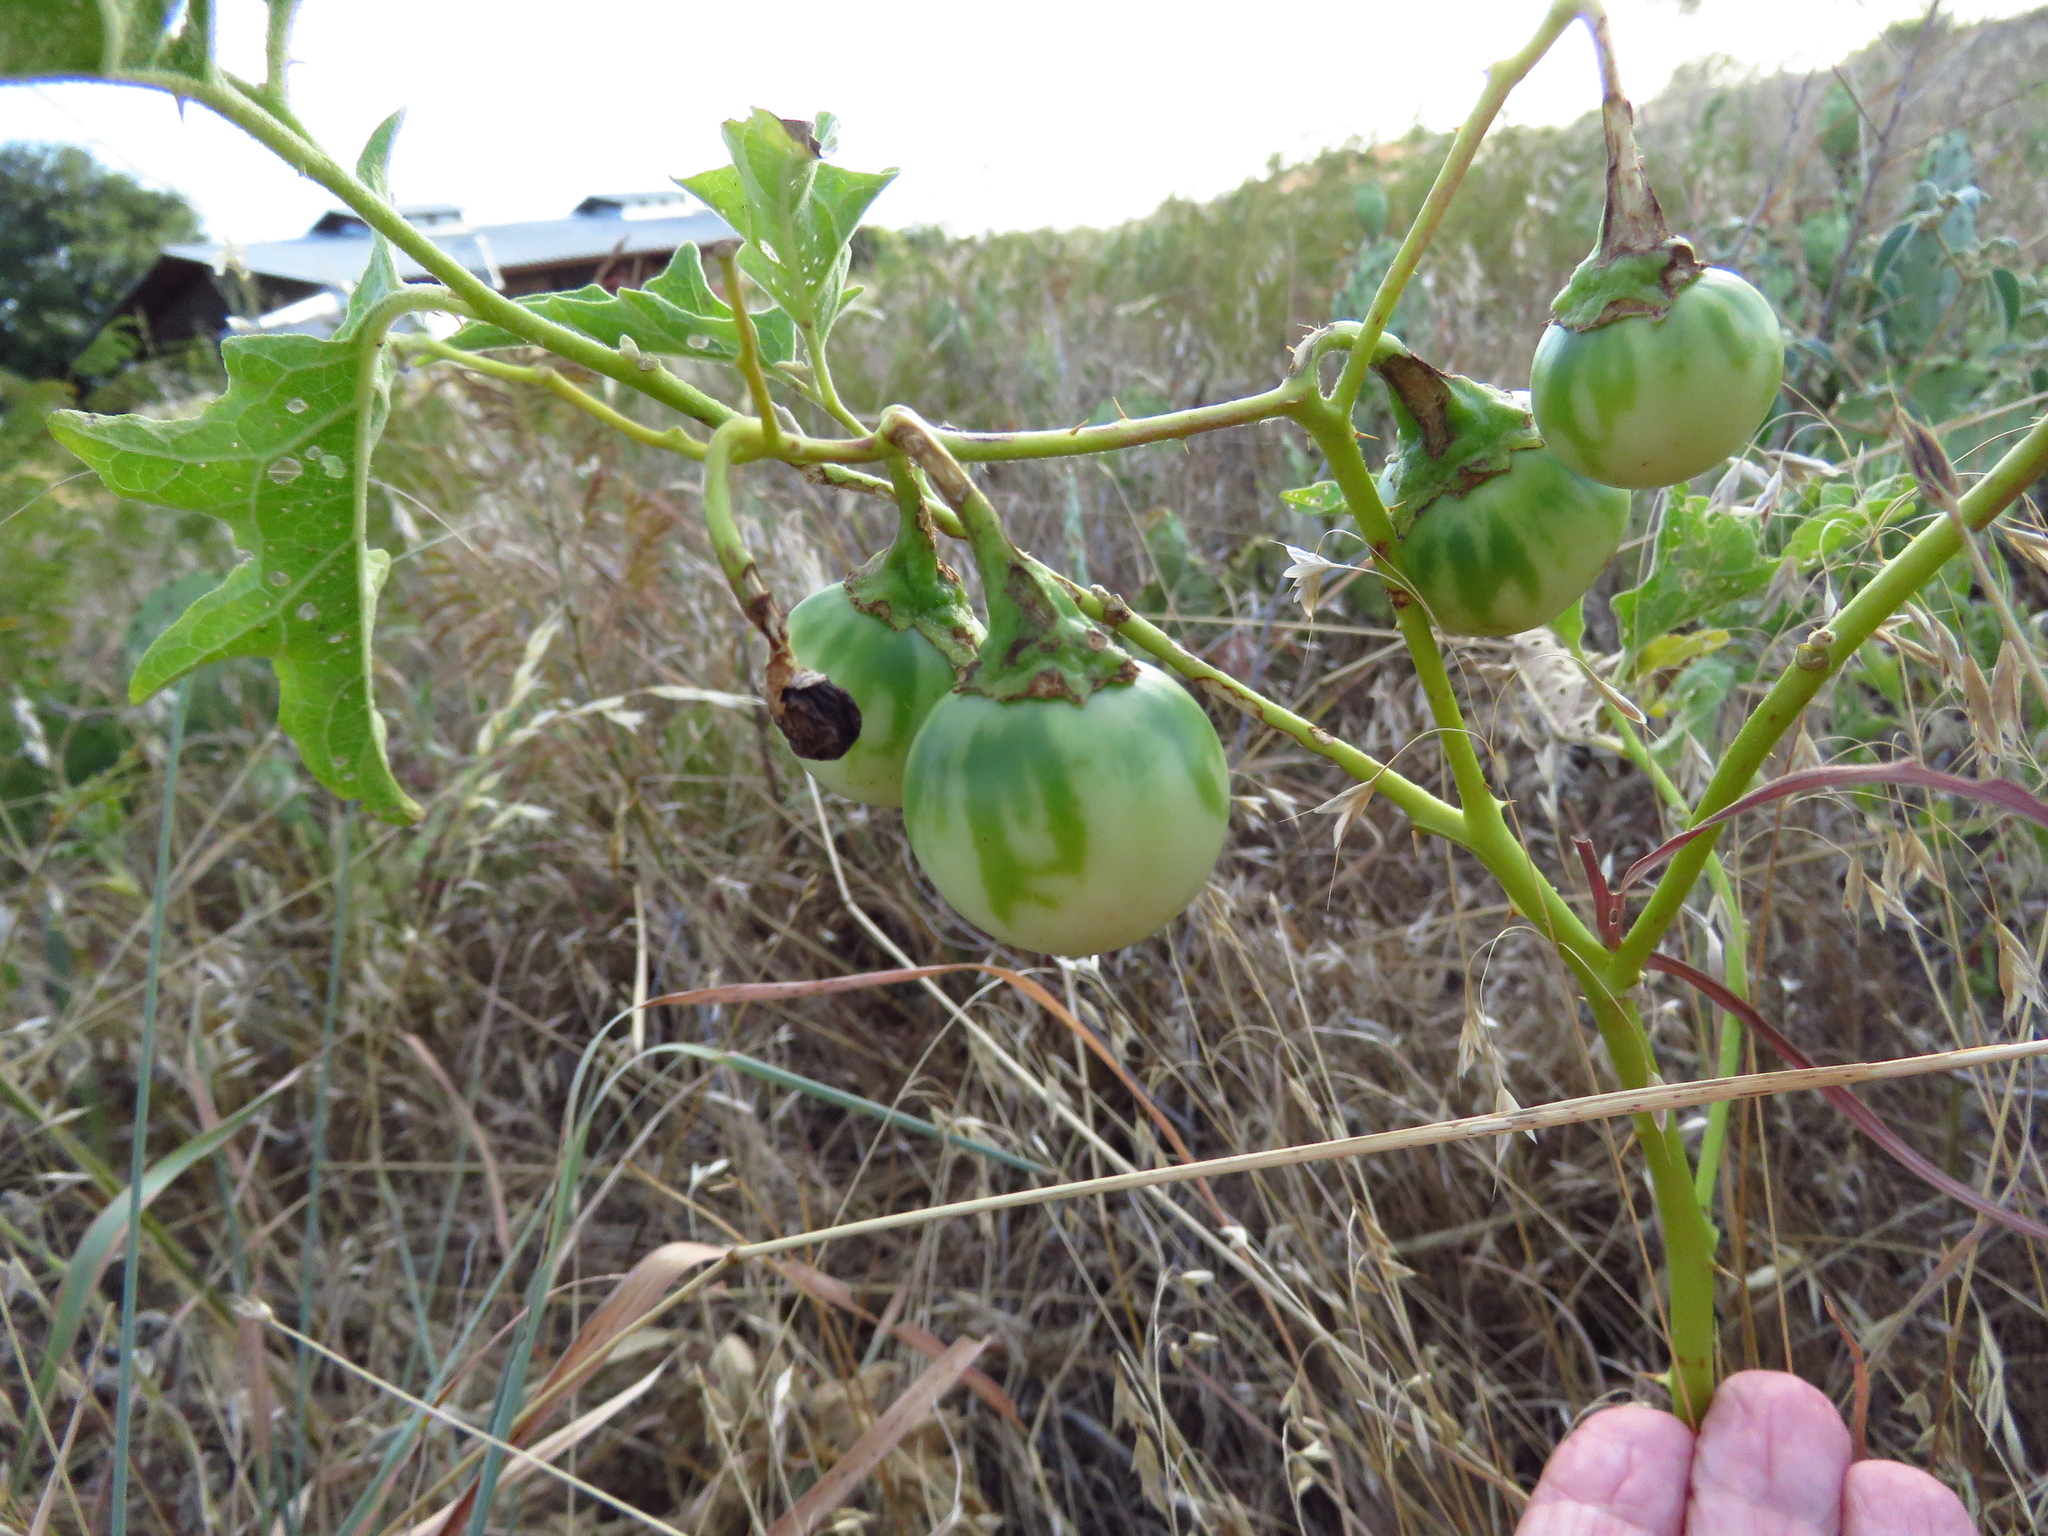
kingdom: Plantae
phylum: Tracheophyta
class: Magnoliopsida
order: Solanales
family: Solanaceae
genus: Solanum
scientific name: Solanum dimidiatum
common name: Carolina horse-nettle
